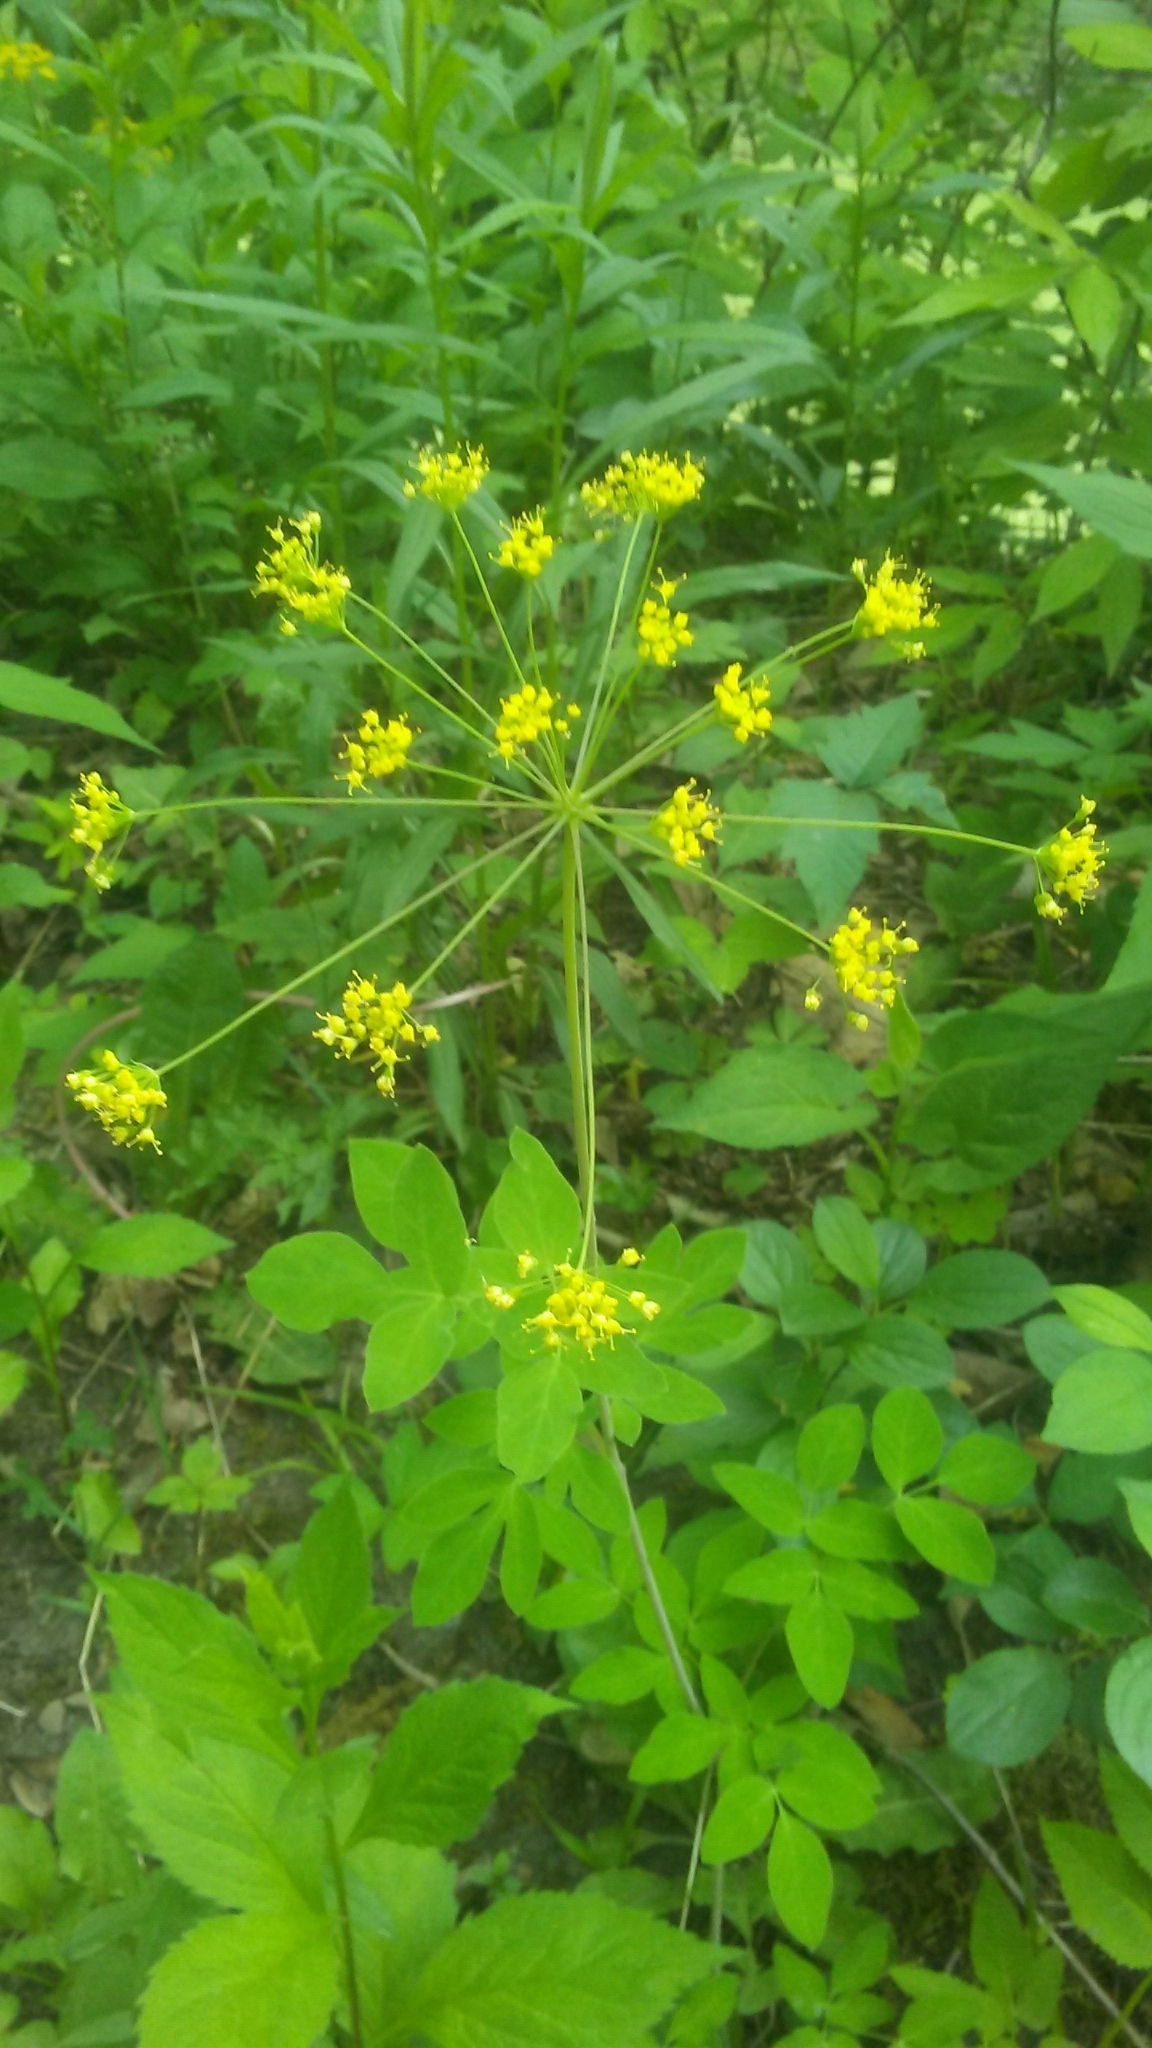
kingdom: Plantae
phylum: Tracheophyta
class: Magnoliopsida
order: Apiales
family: Apiaceae
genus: Taenidia
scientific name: Taenidia integerrima
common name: Golden alexander
